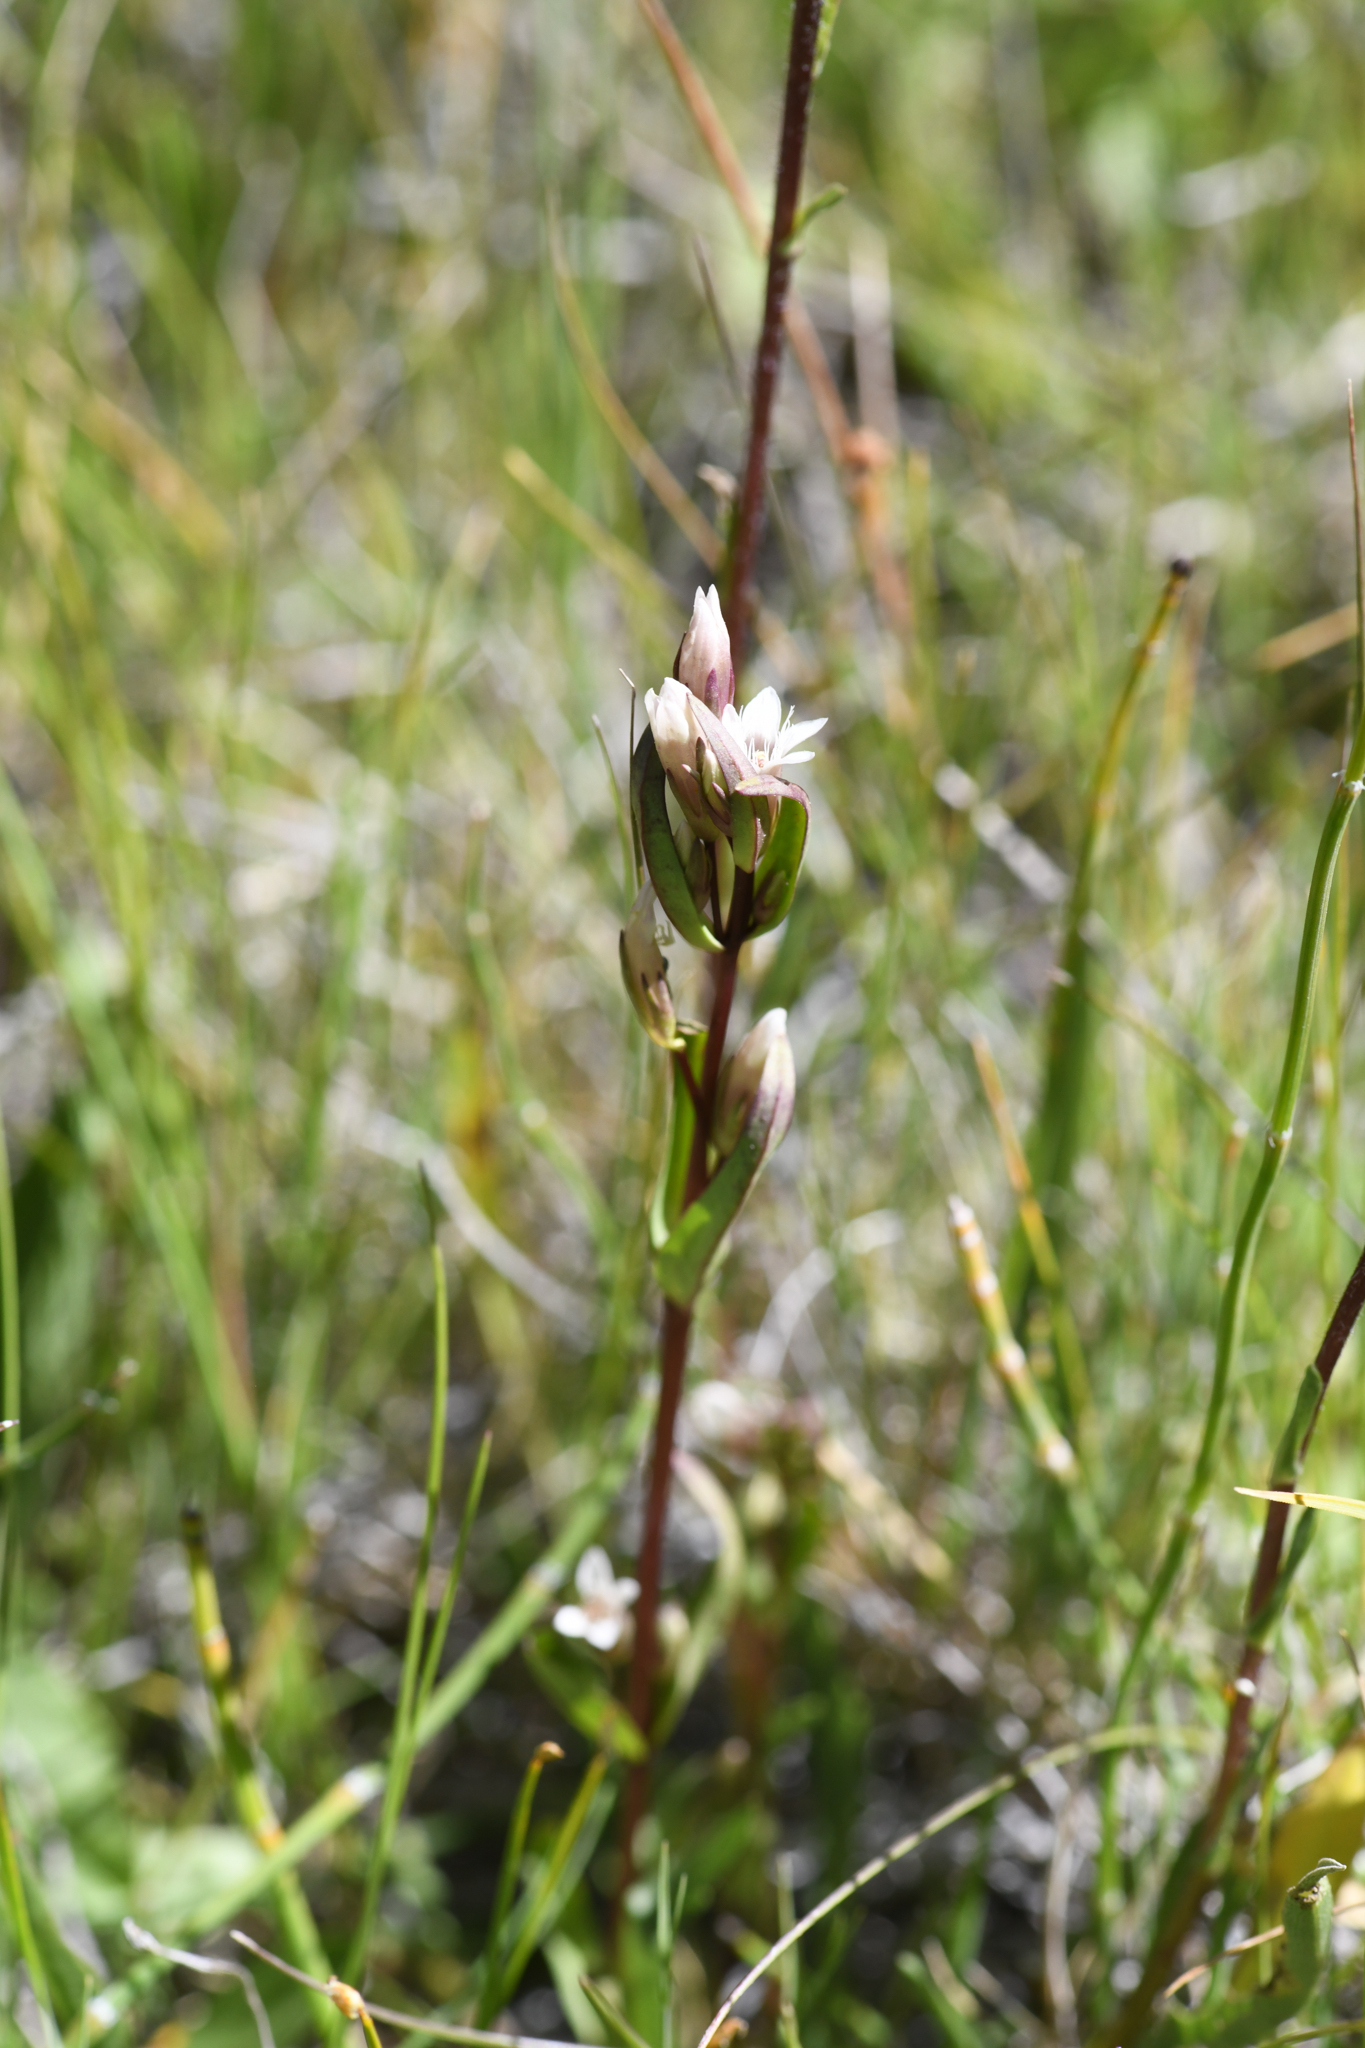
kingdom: Plantae
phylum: Tracheophyta
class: Magnoliopsida
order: Gentianales
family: Gentianaceae
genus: Gentianella
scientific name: Gentianella amarella
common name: Autumn gentian
